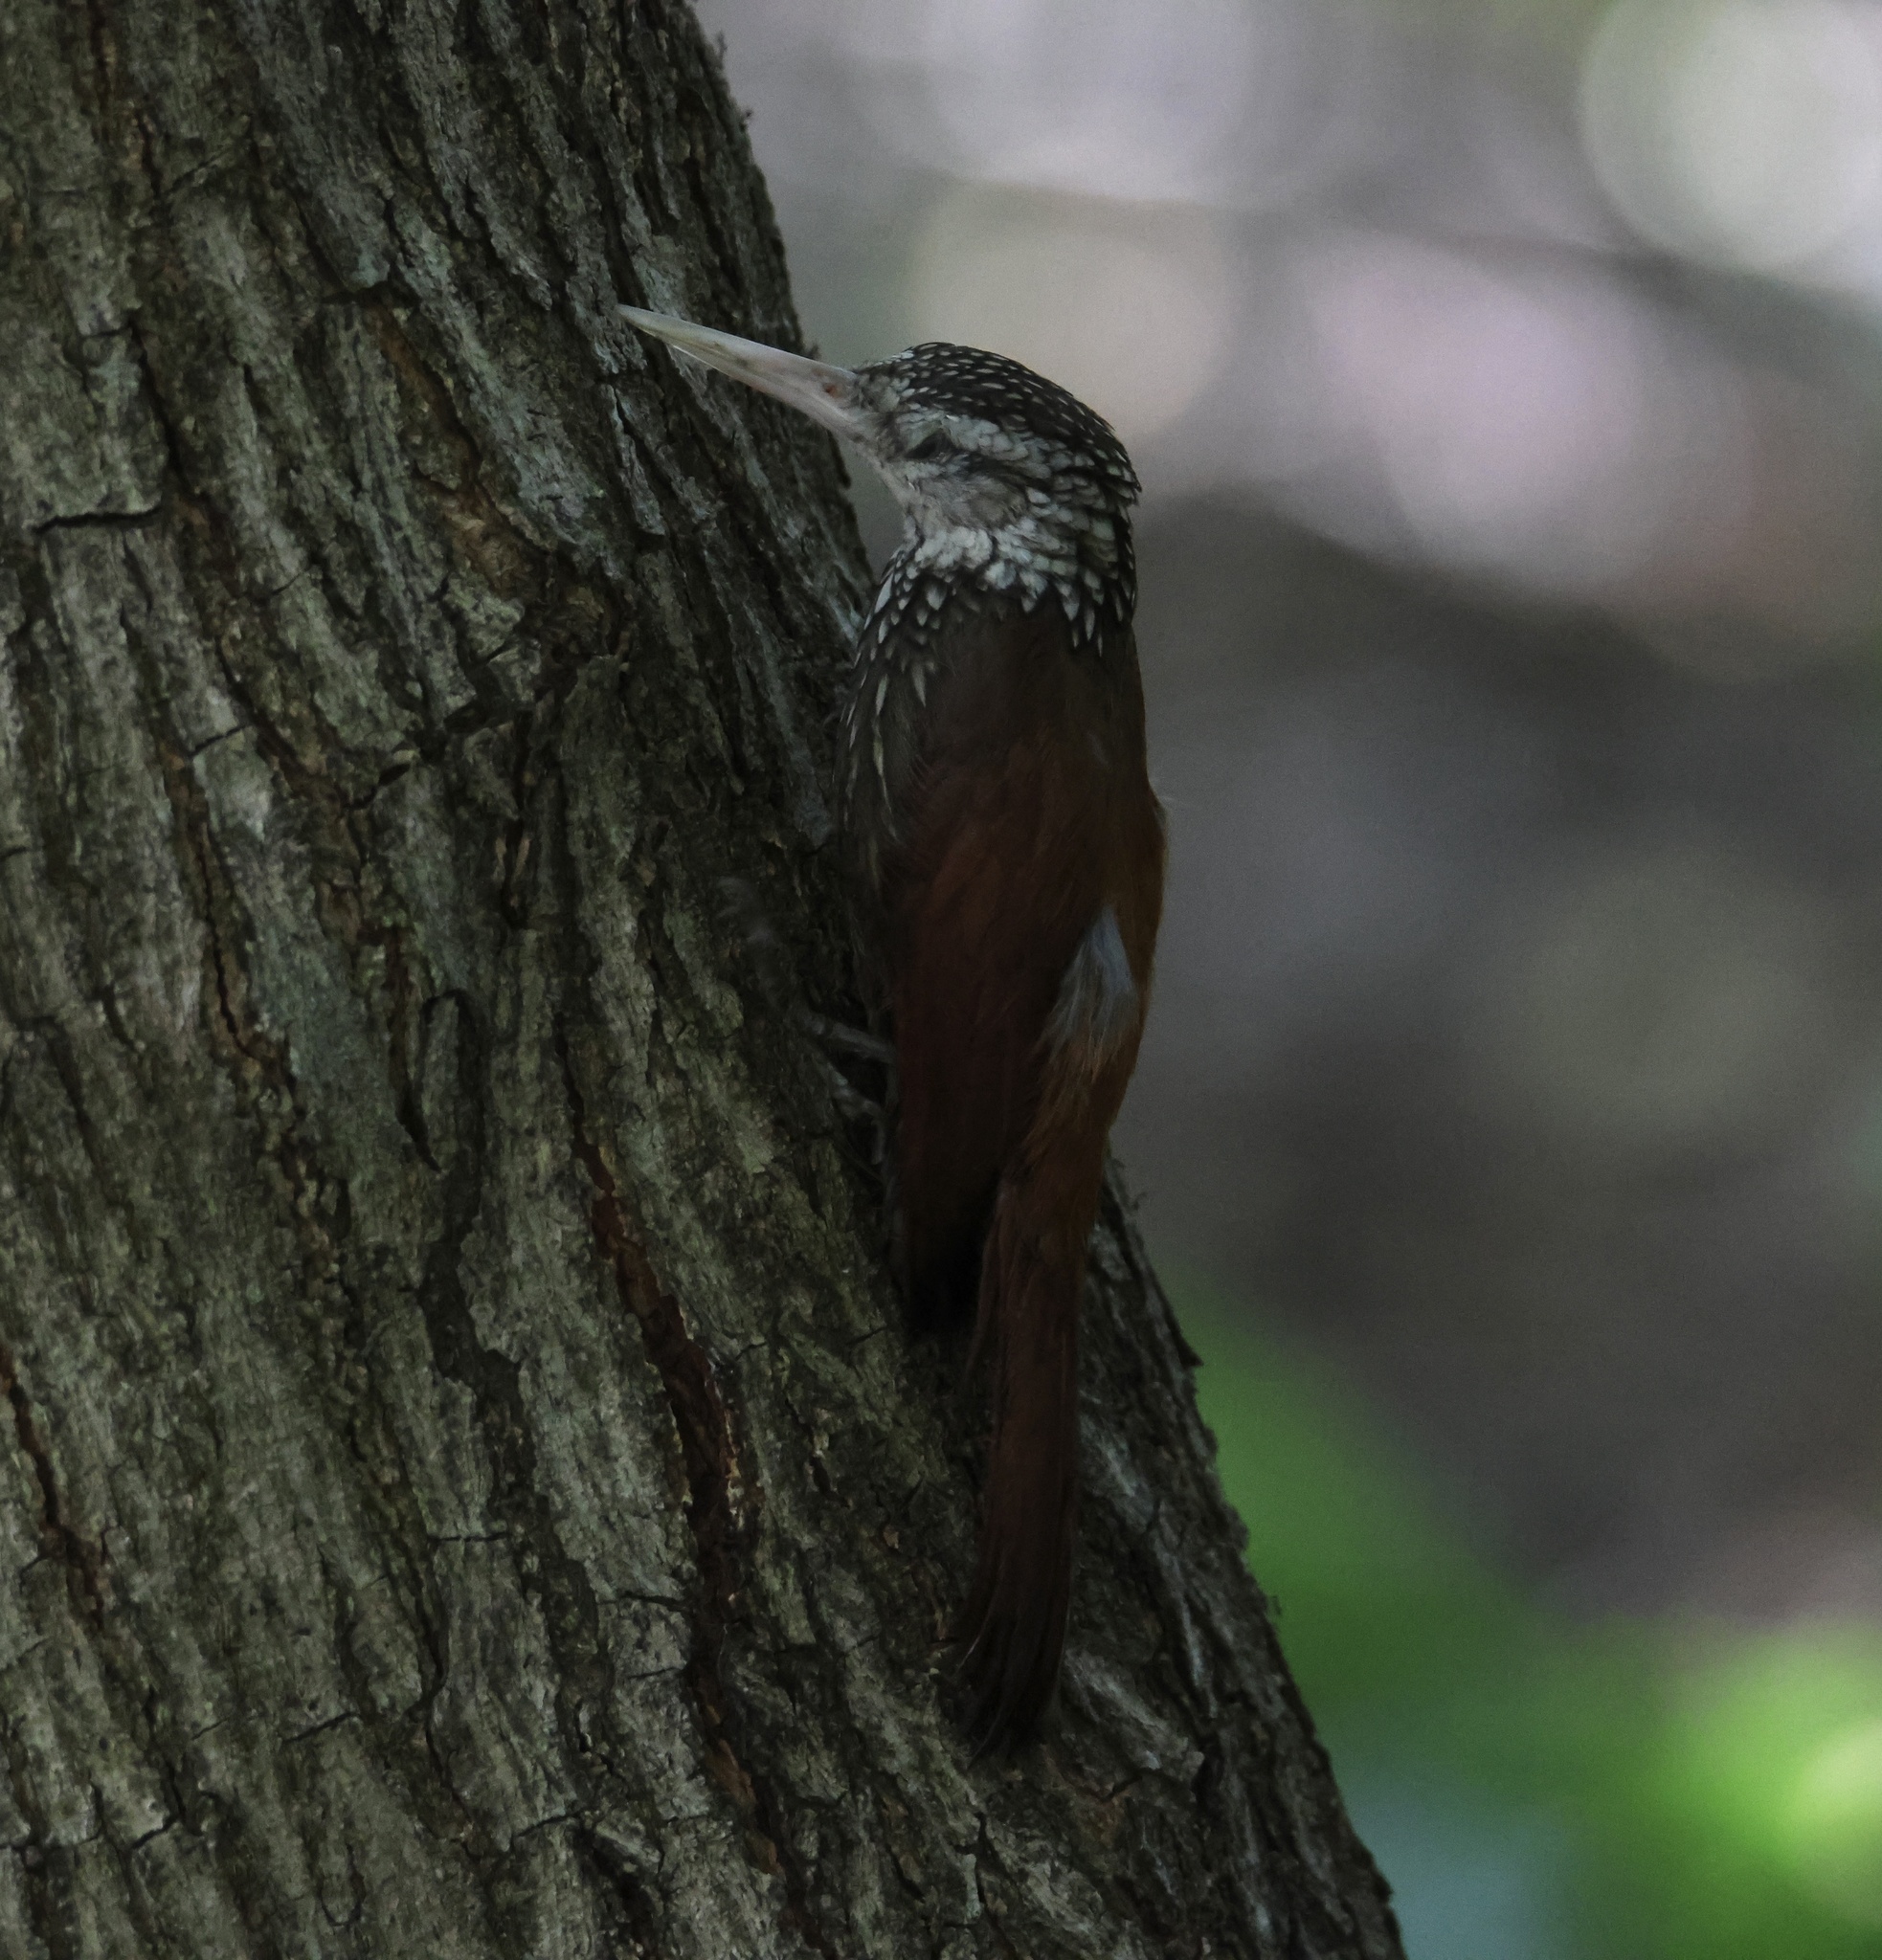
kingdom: Animalia
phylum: Chordata
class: Aves
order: Passeriformes
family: Furnariidae
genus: Xiphorhynchus
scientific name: Xiphorhynchus picus
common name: Straight-billed woodcreeper
